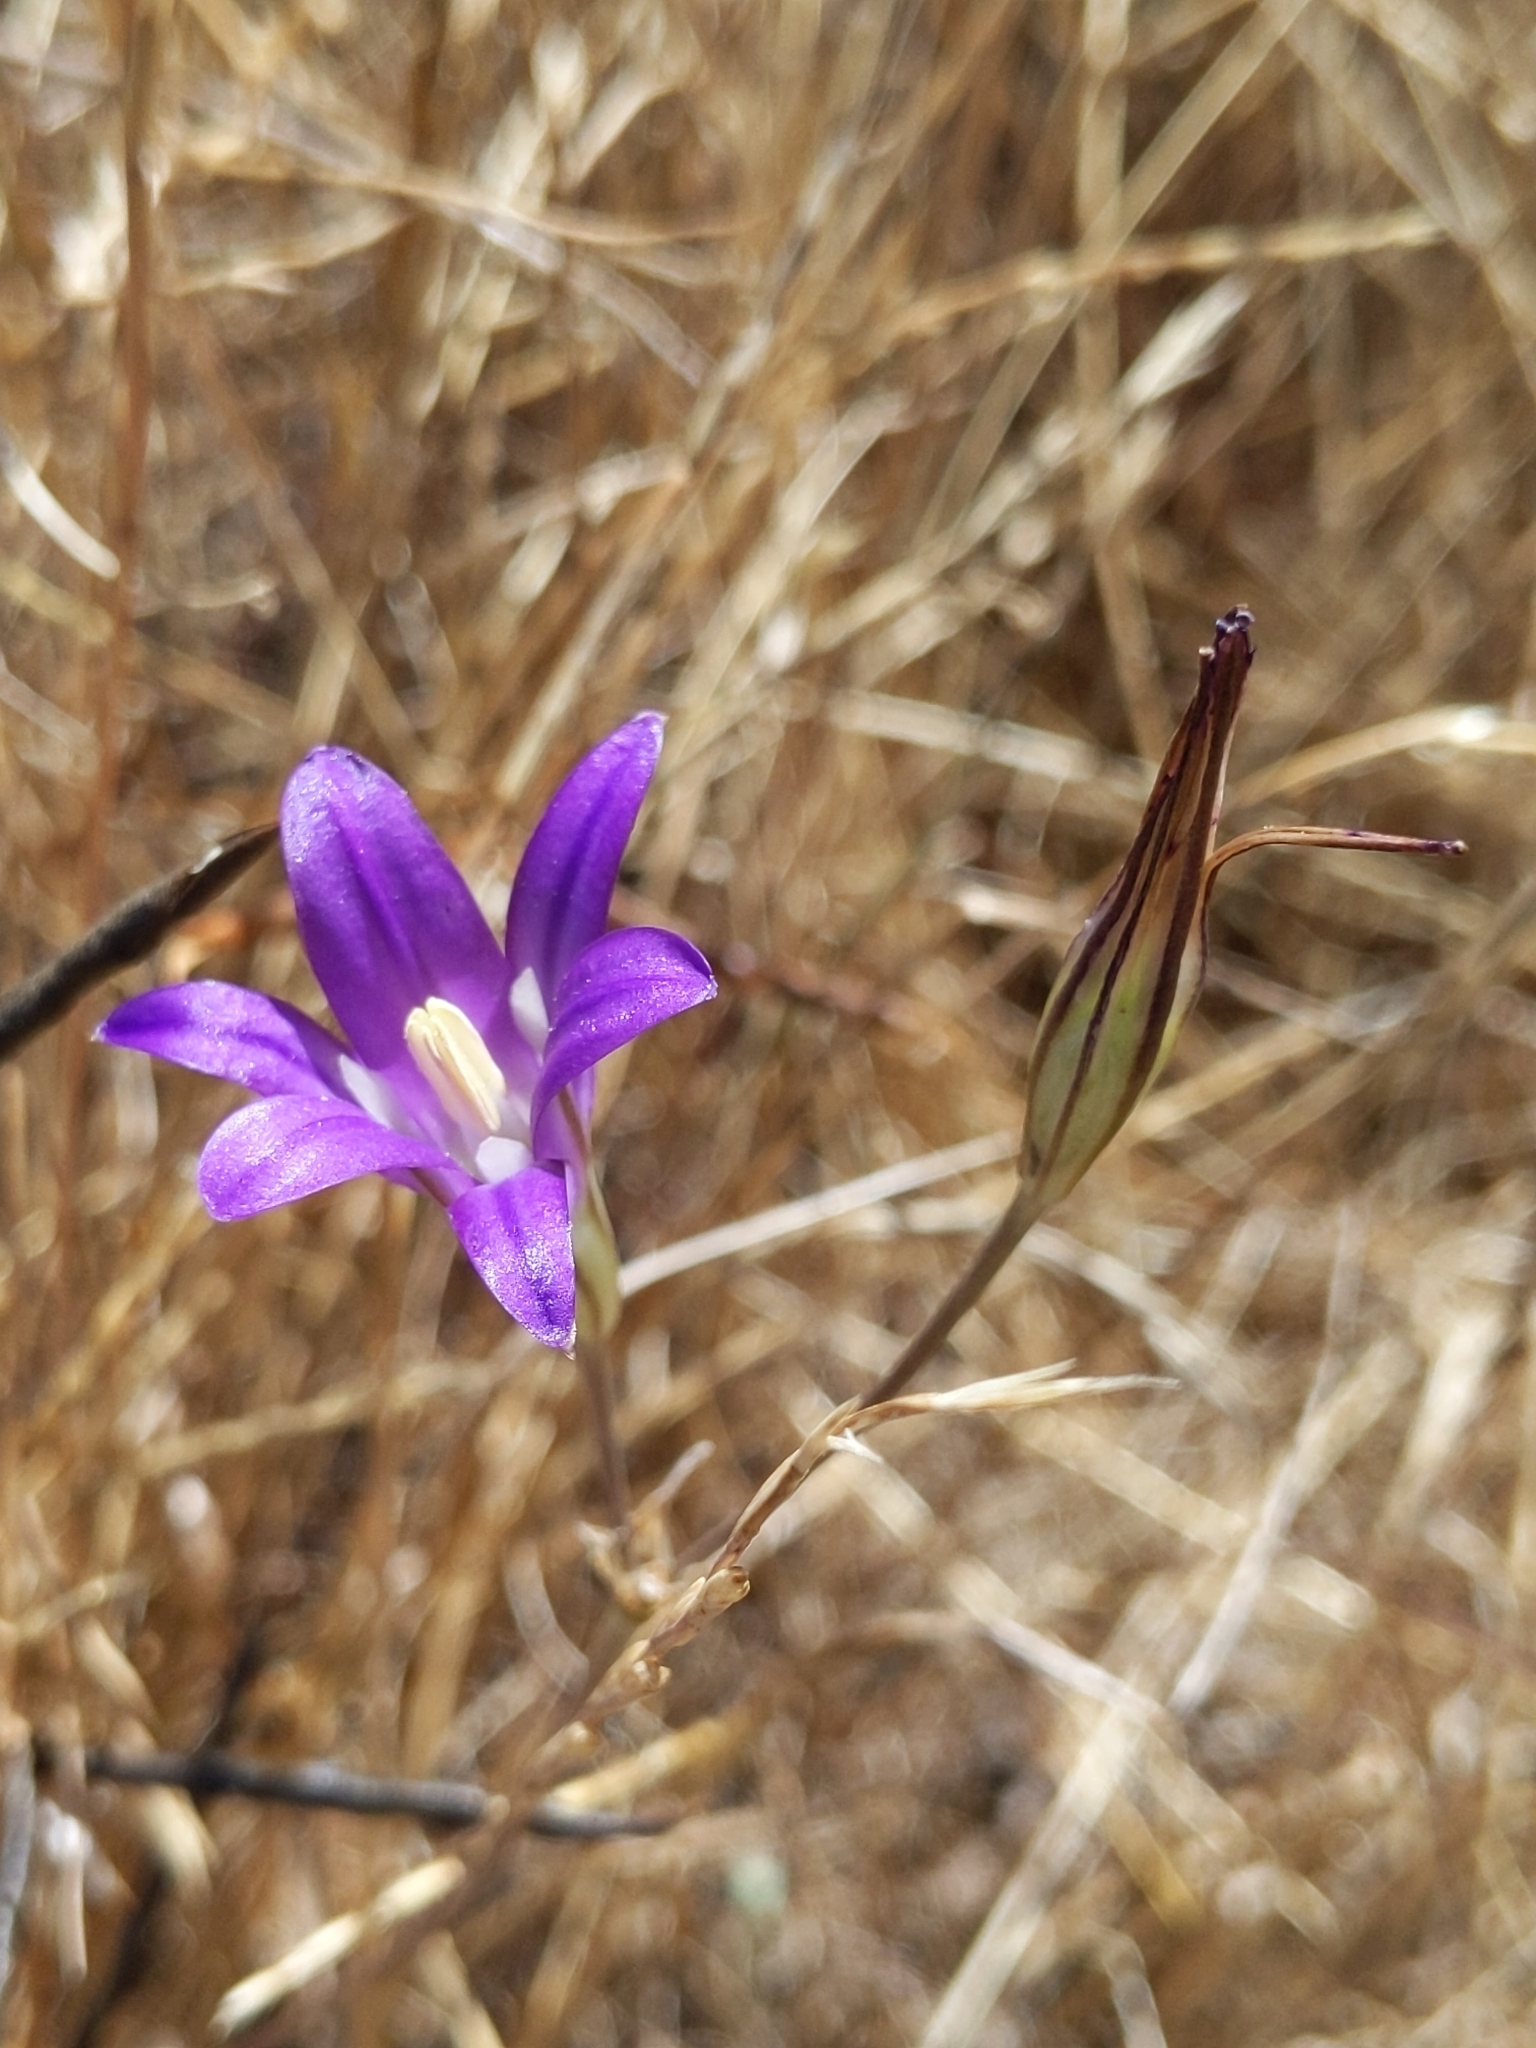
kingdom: Plantae
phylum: Tracheophyta
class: Liliopsida
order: Asparagales
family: Asparagaceae
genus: Brodiaea
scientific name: Brodiaea elegans
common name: Elegant cluster-lily
